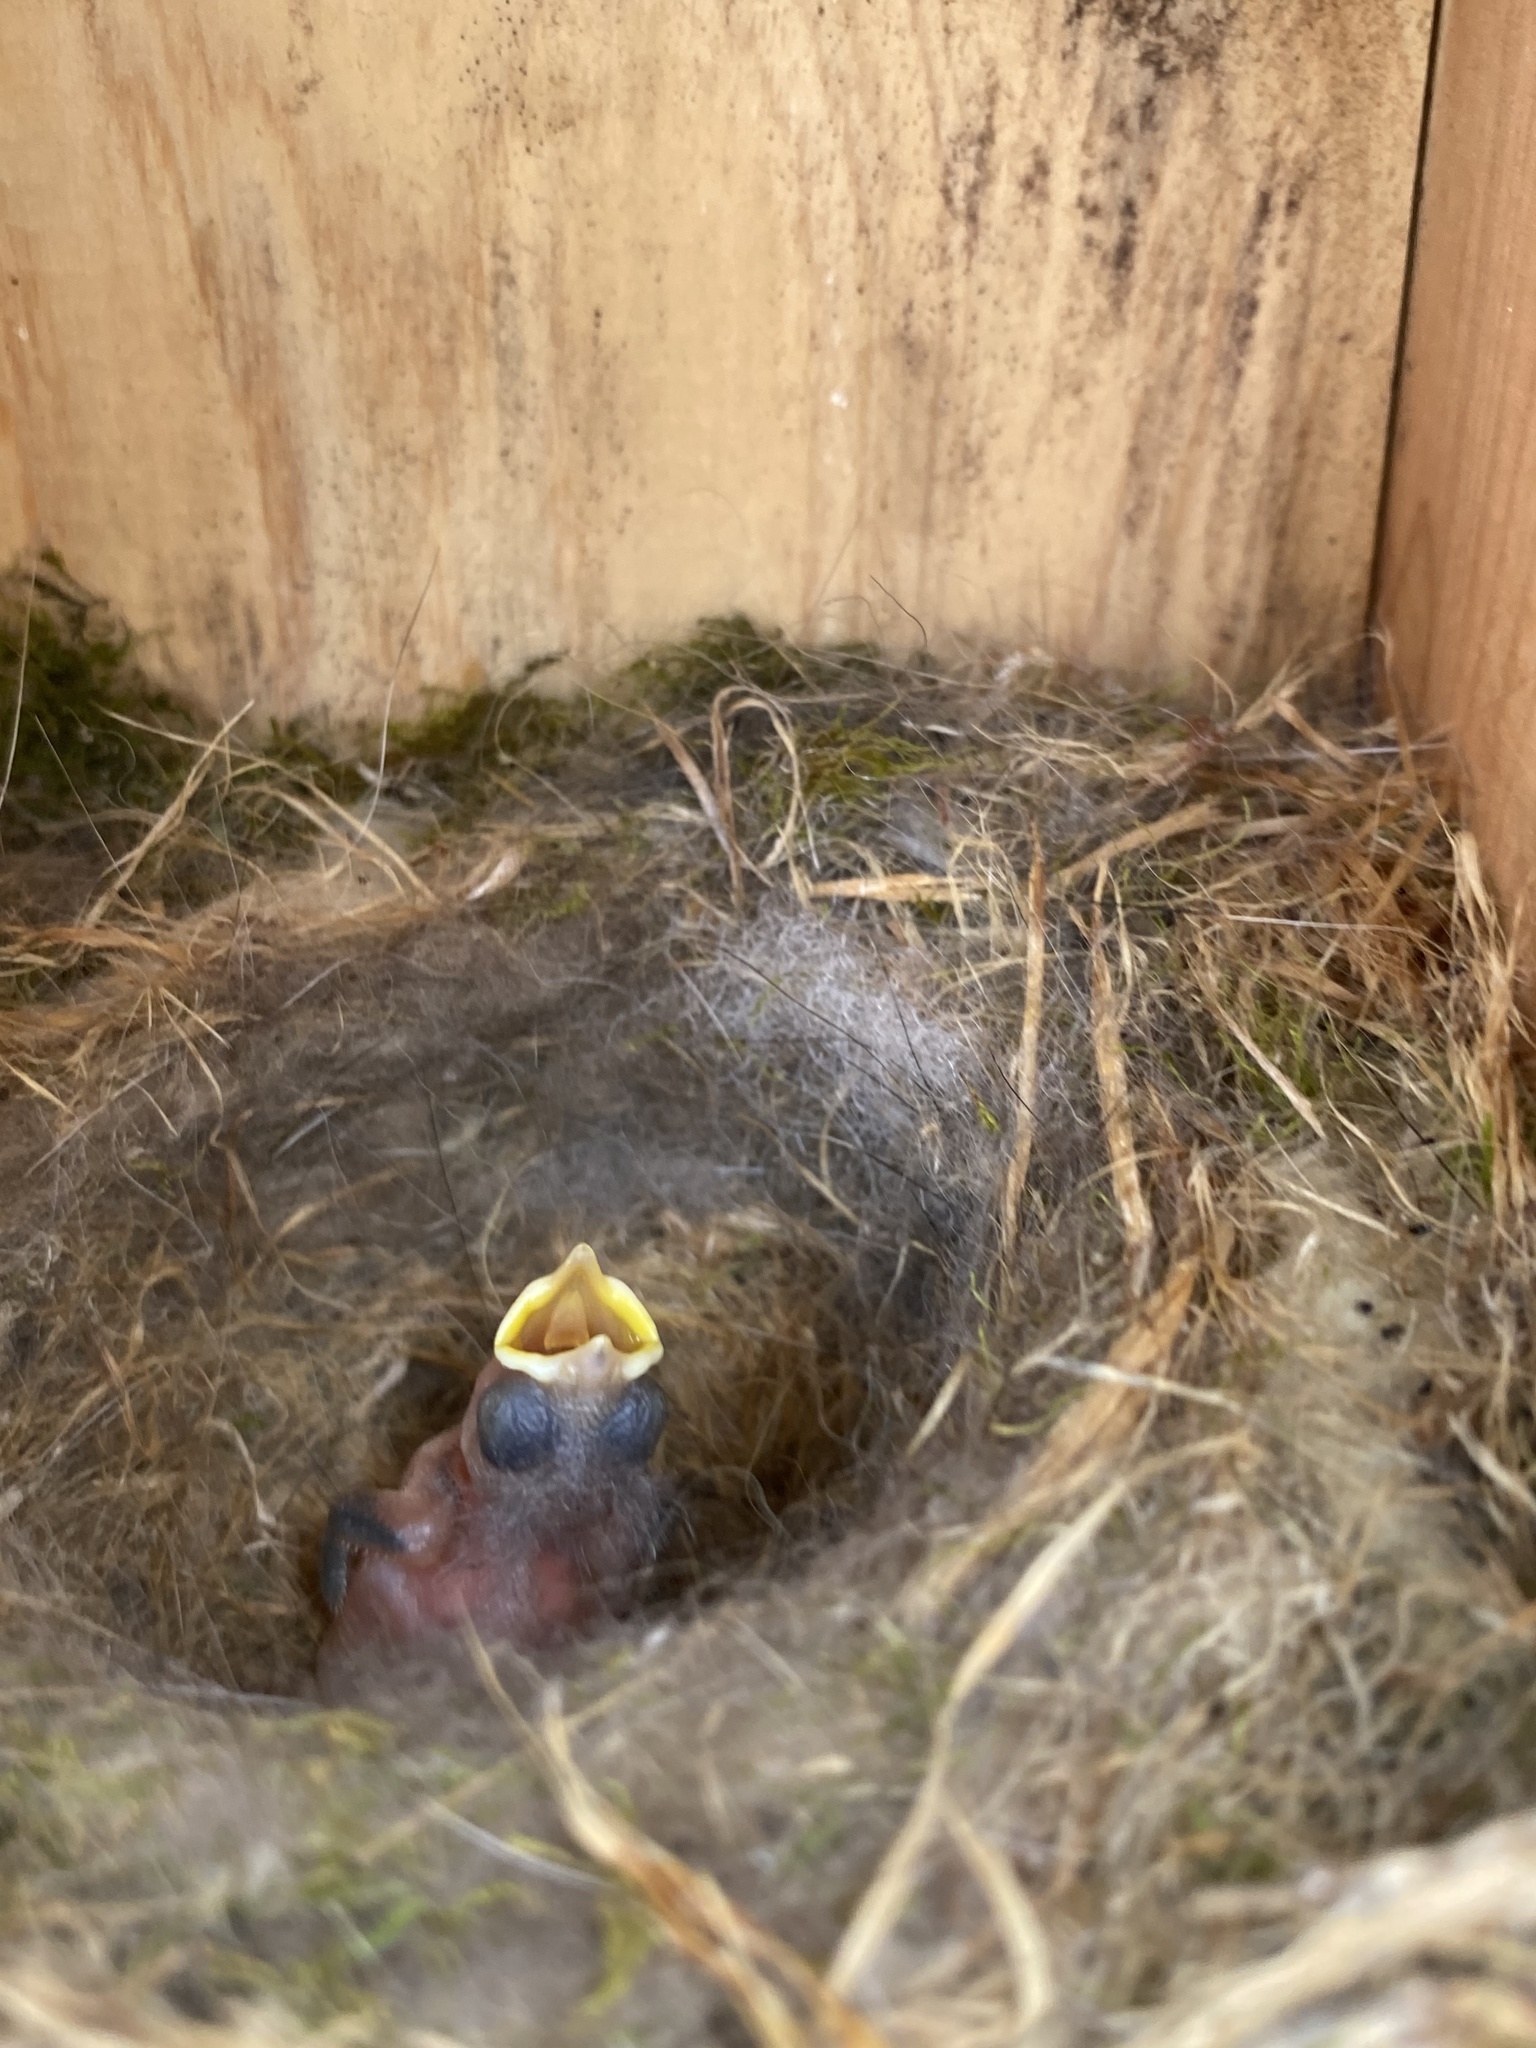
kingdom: Animalia
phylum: Chordata
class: Aves
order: Passeriformes
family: Paridae
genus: Poecile
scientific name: Poecile carolinensis
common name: Carolina chickadee
